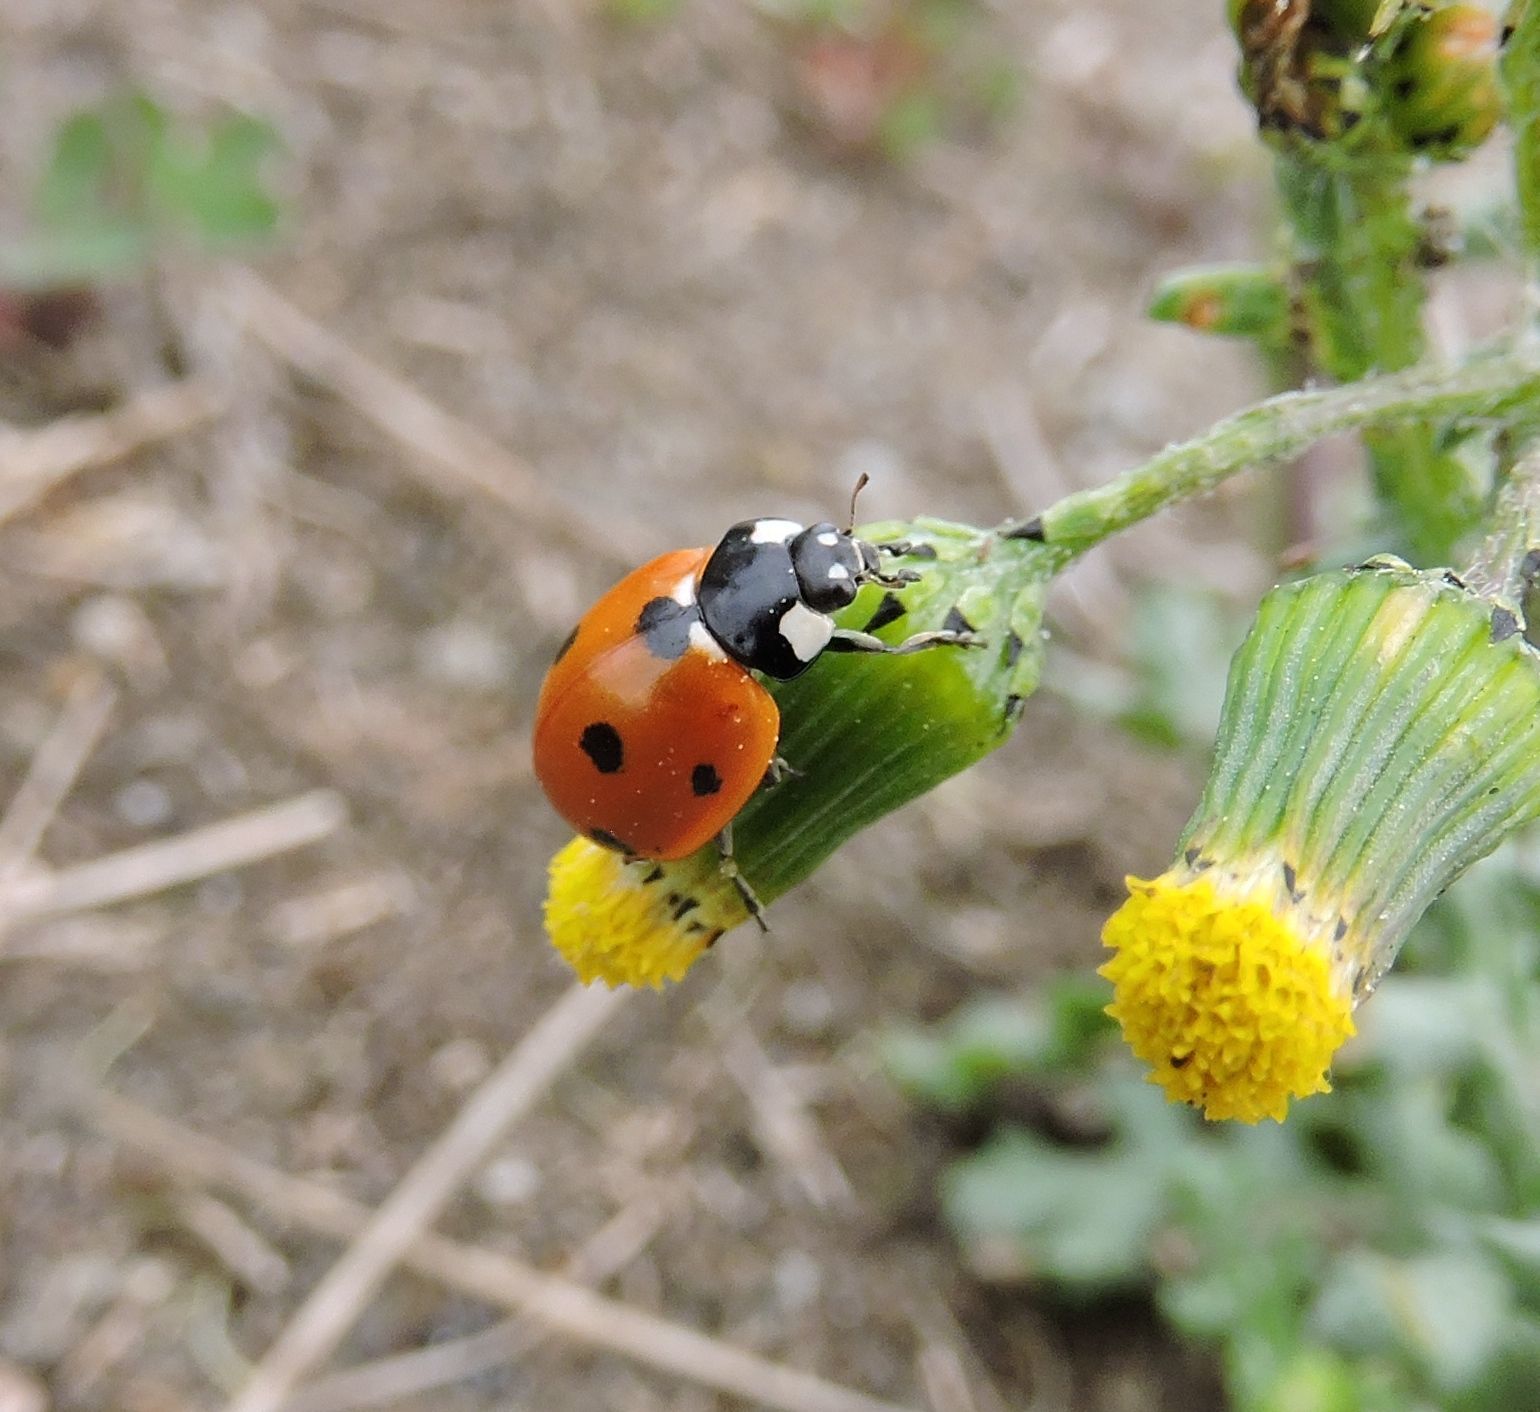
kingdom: Animalia
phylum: Arthropoda
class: Insecta
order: Coleoptera
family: Coccinellidae
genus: Coccinella
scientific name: Coccinella septempunctata
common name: Sevenspotted lady beetle
